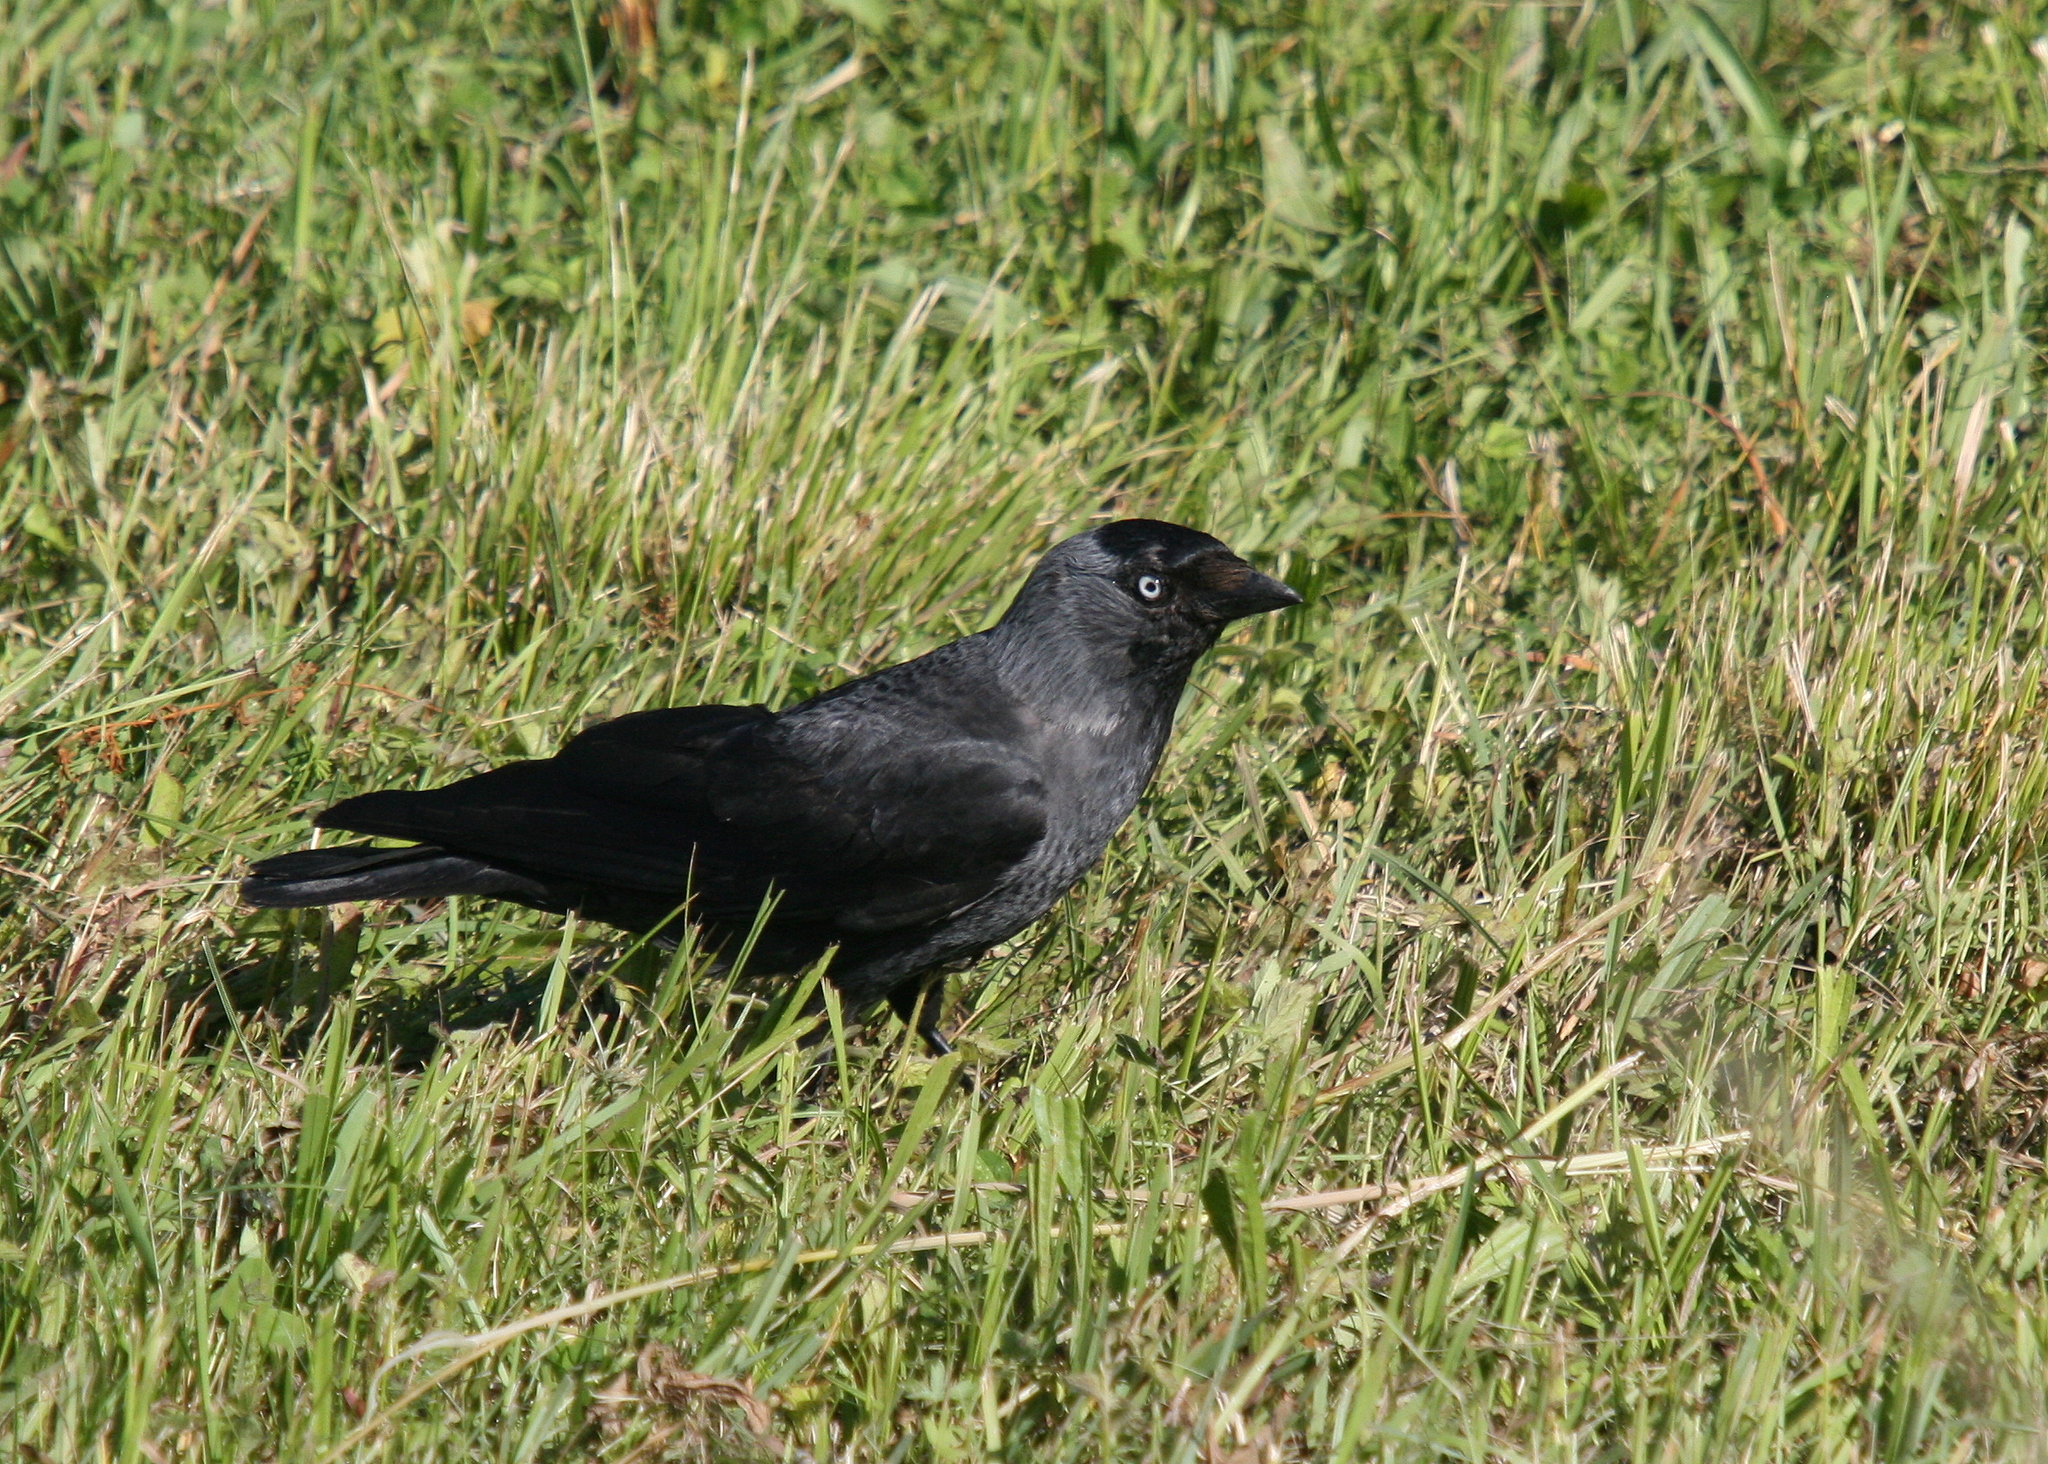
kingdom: Animalia
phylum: Chordata
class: Aves
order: Passeriformes
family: Corvidae
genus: Coloeus
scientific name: Coloeus monedula
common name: Western jackdaw
